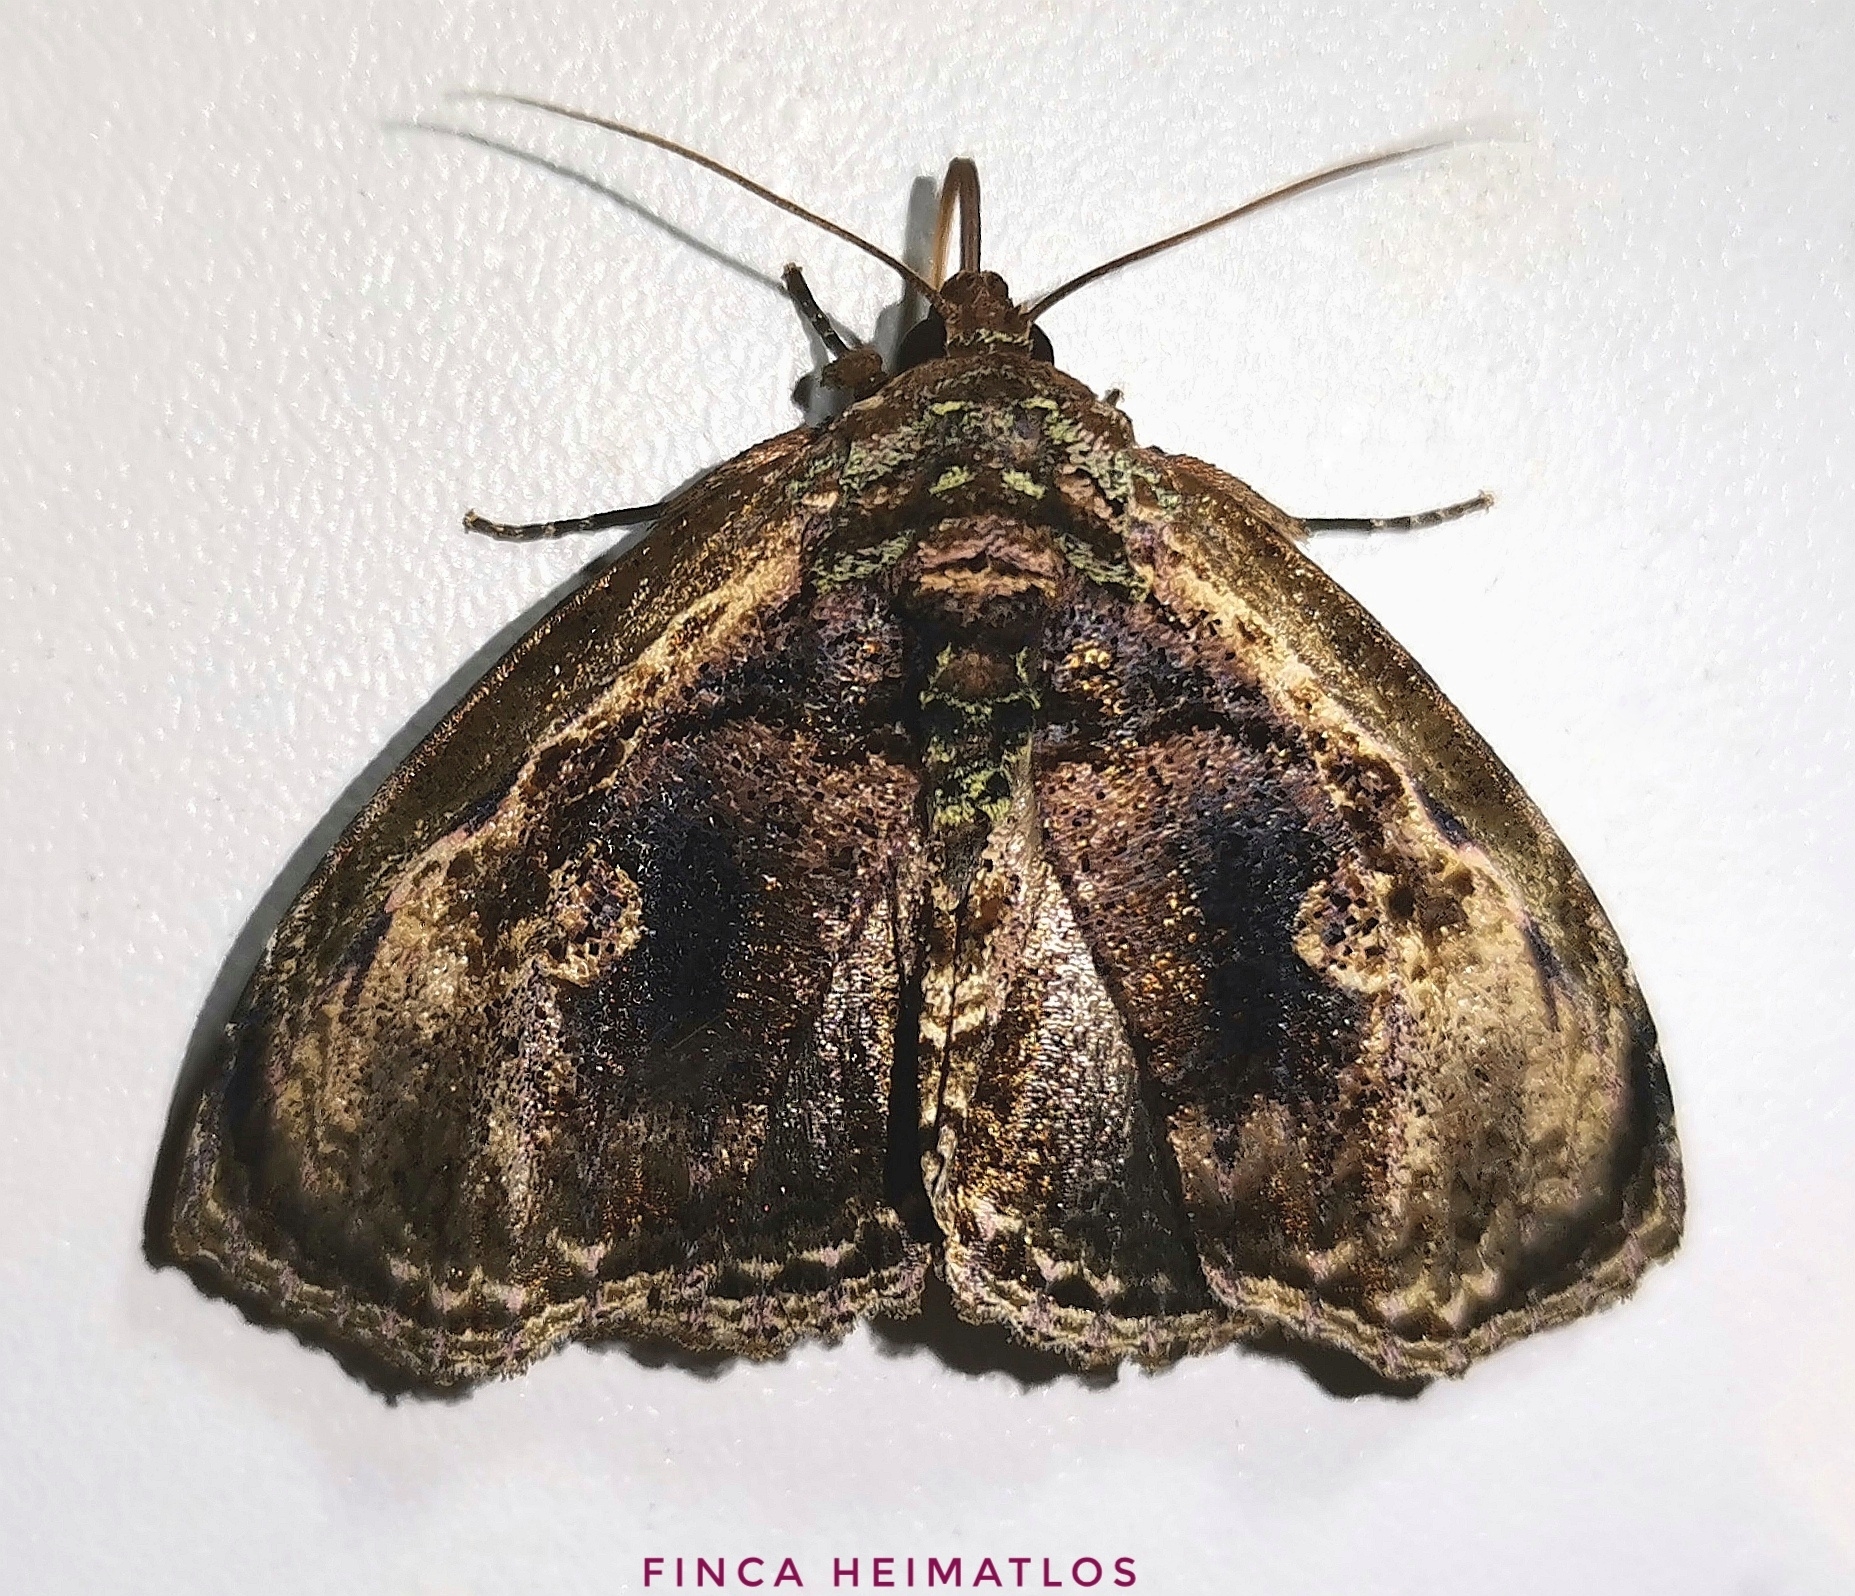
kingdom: Animalia
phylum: Arthropoda
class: Insecta
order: Lepidoptera
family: Erebidae
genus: Lepidodes
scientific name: Lepidodes limbulata
